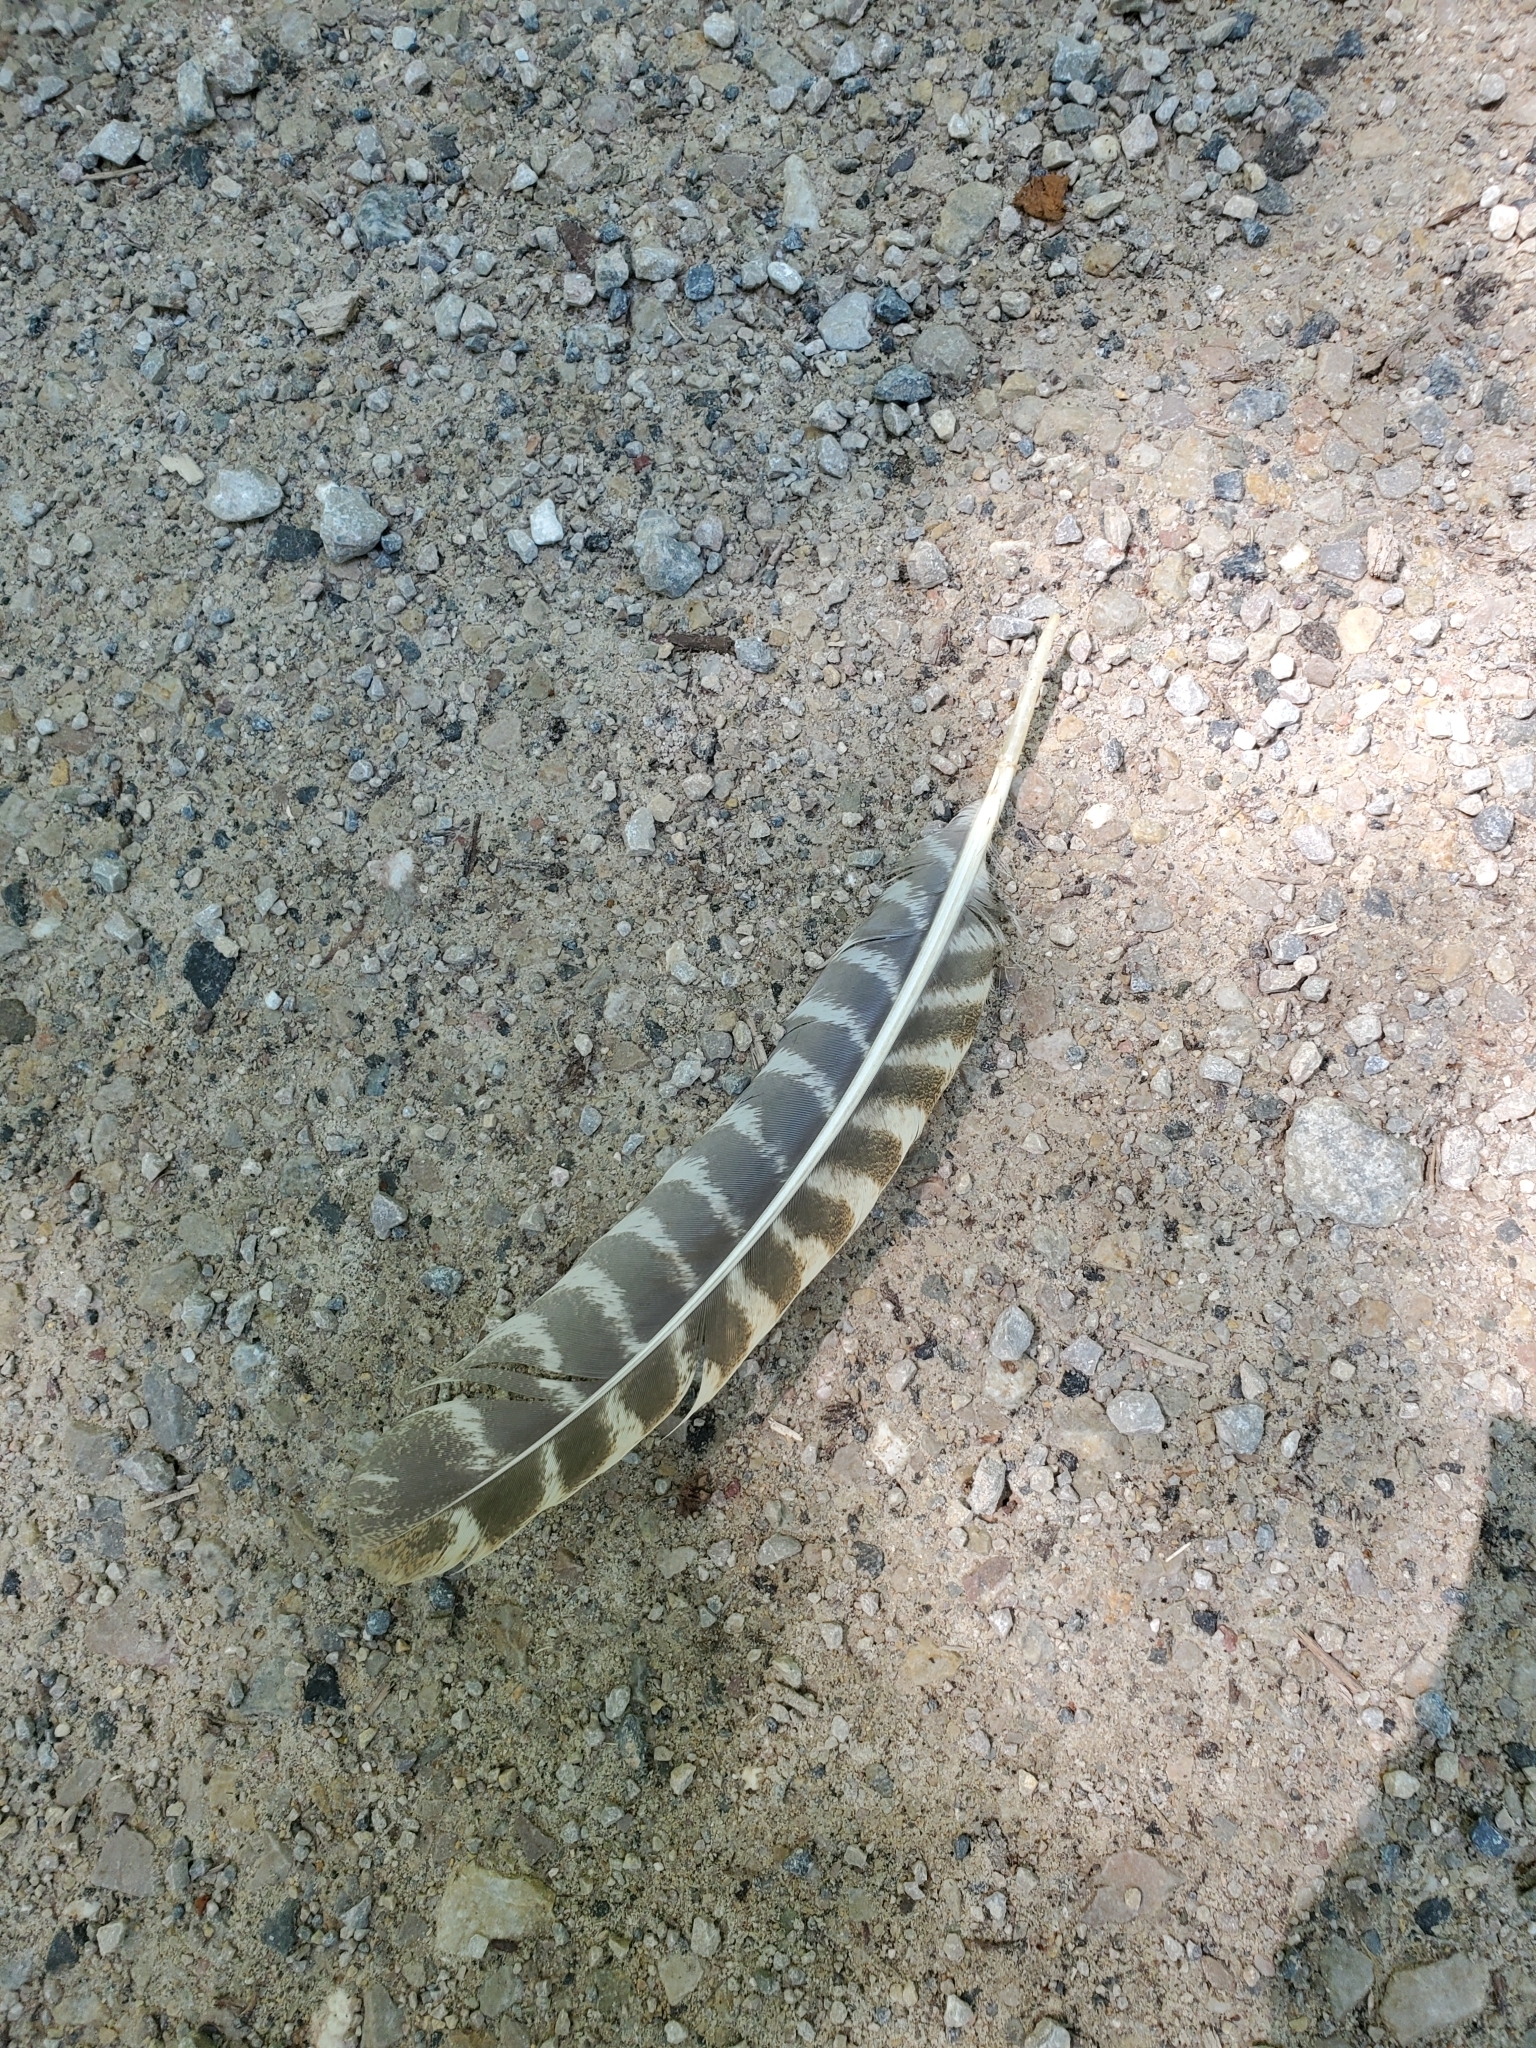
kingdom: Animalia
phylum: Chordata
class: Aves
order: Galliformes
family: Phasianidae
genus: Meleagris
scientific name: Meleagris gallopavo
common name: Wild turkey
